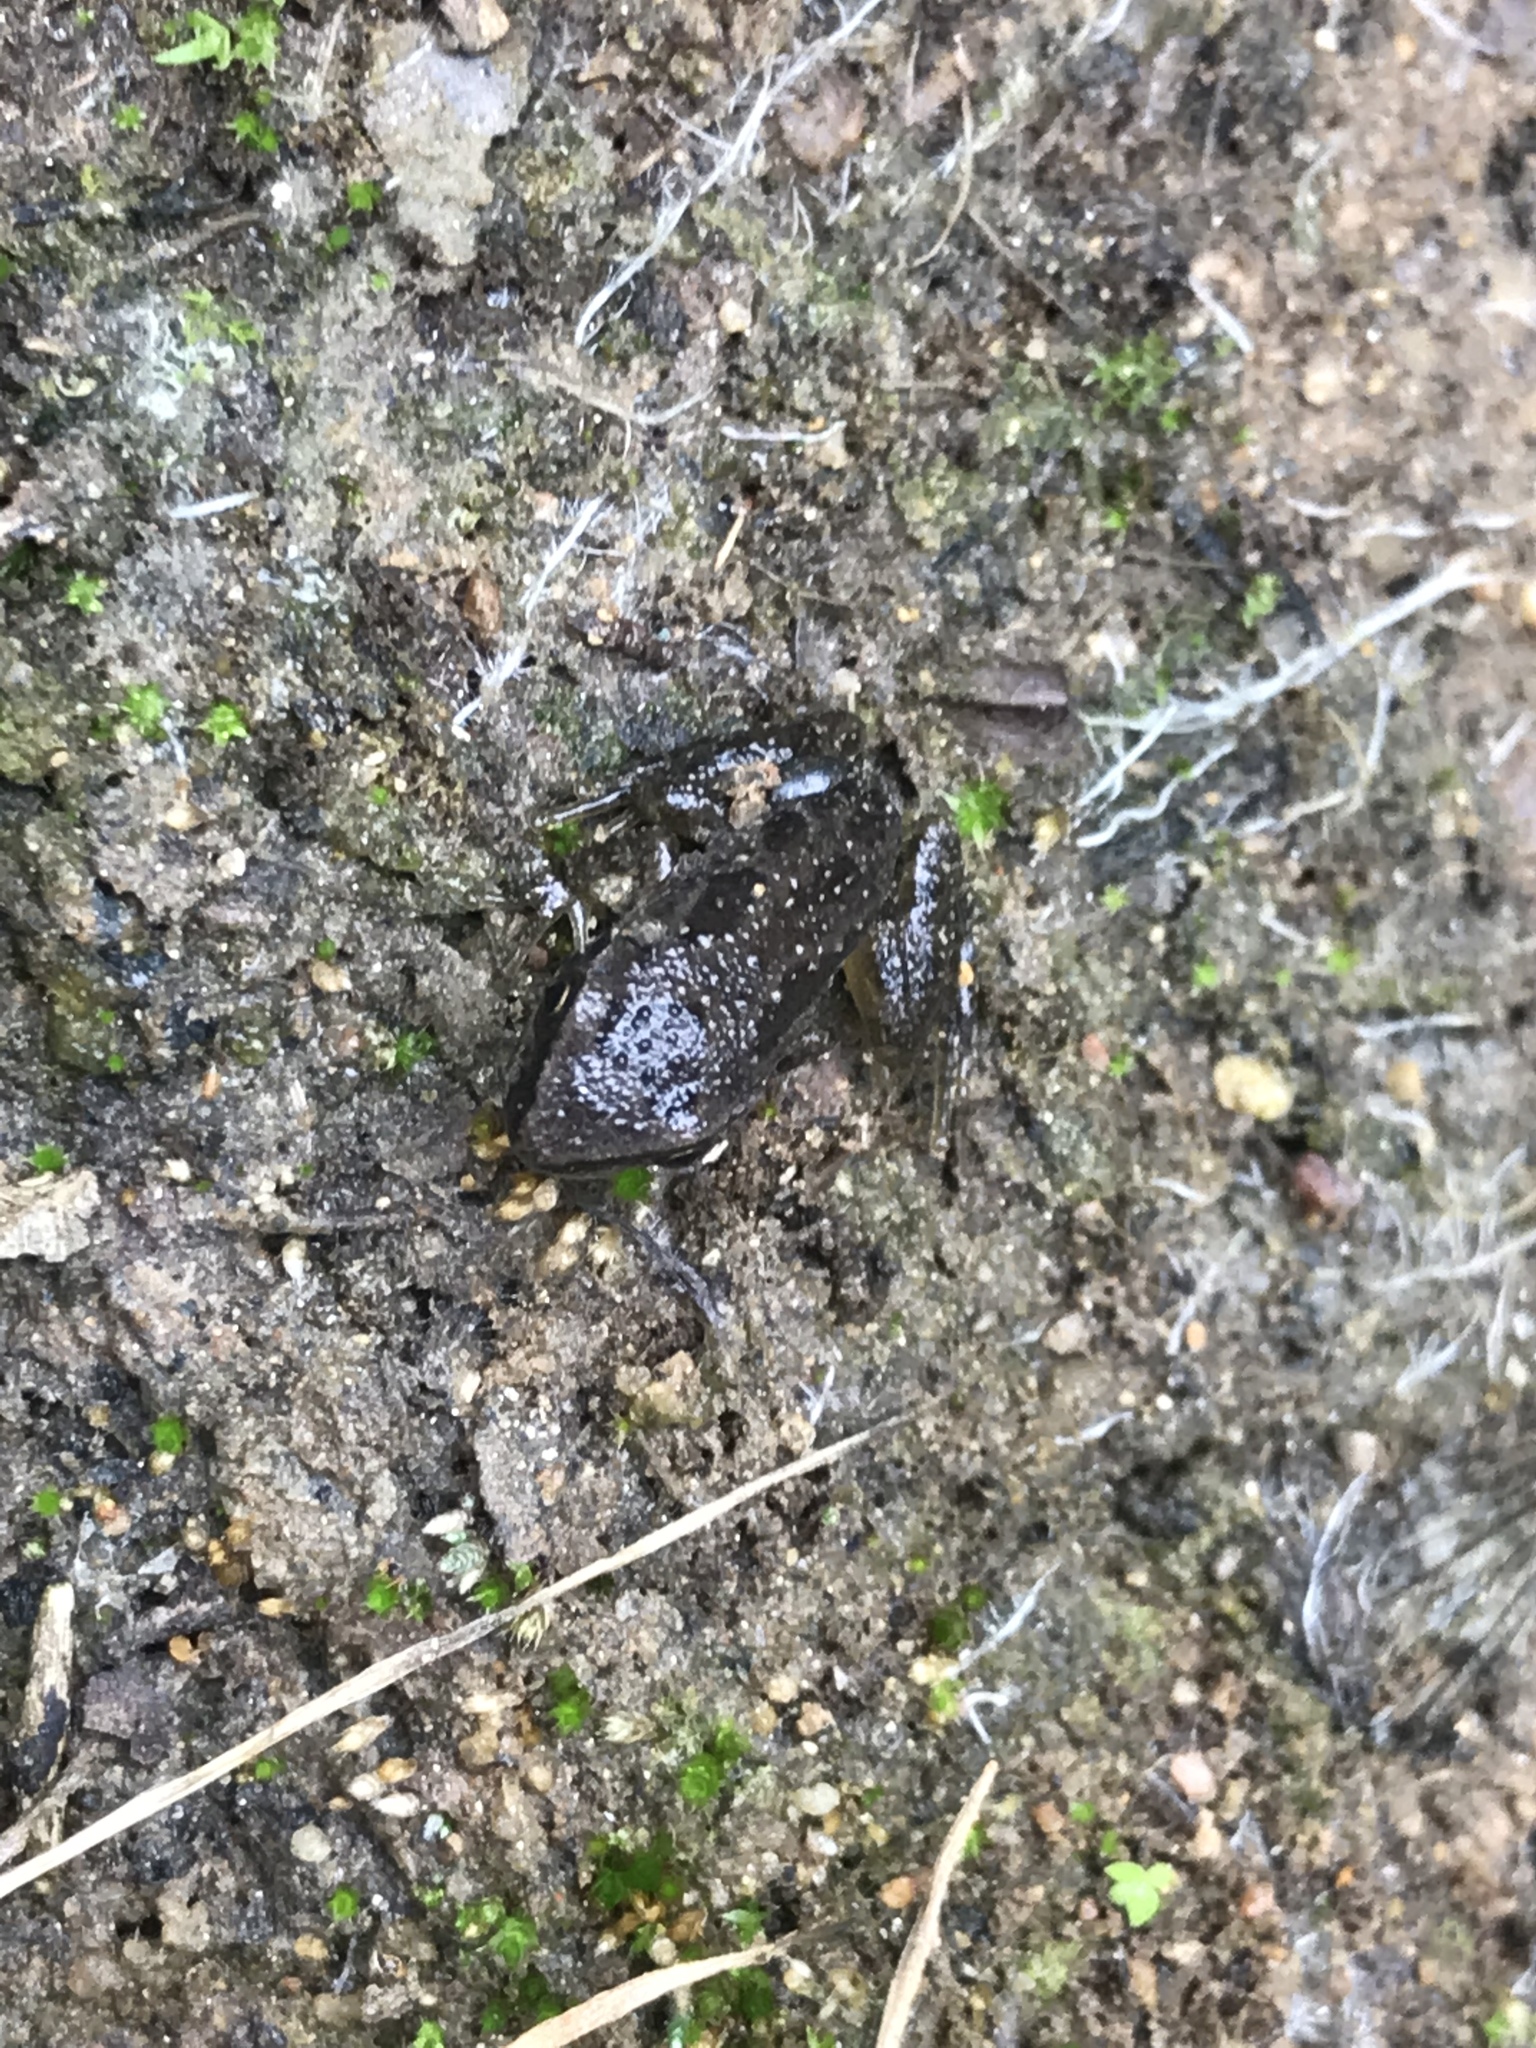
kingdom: Animalia
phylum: Chordata
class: Amphibia
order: Anura
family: Hylidae
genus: Pseudacris
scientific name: Pseudacris regilla
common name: Pacific chorus frog
